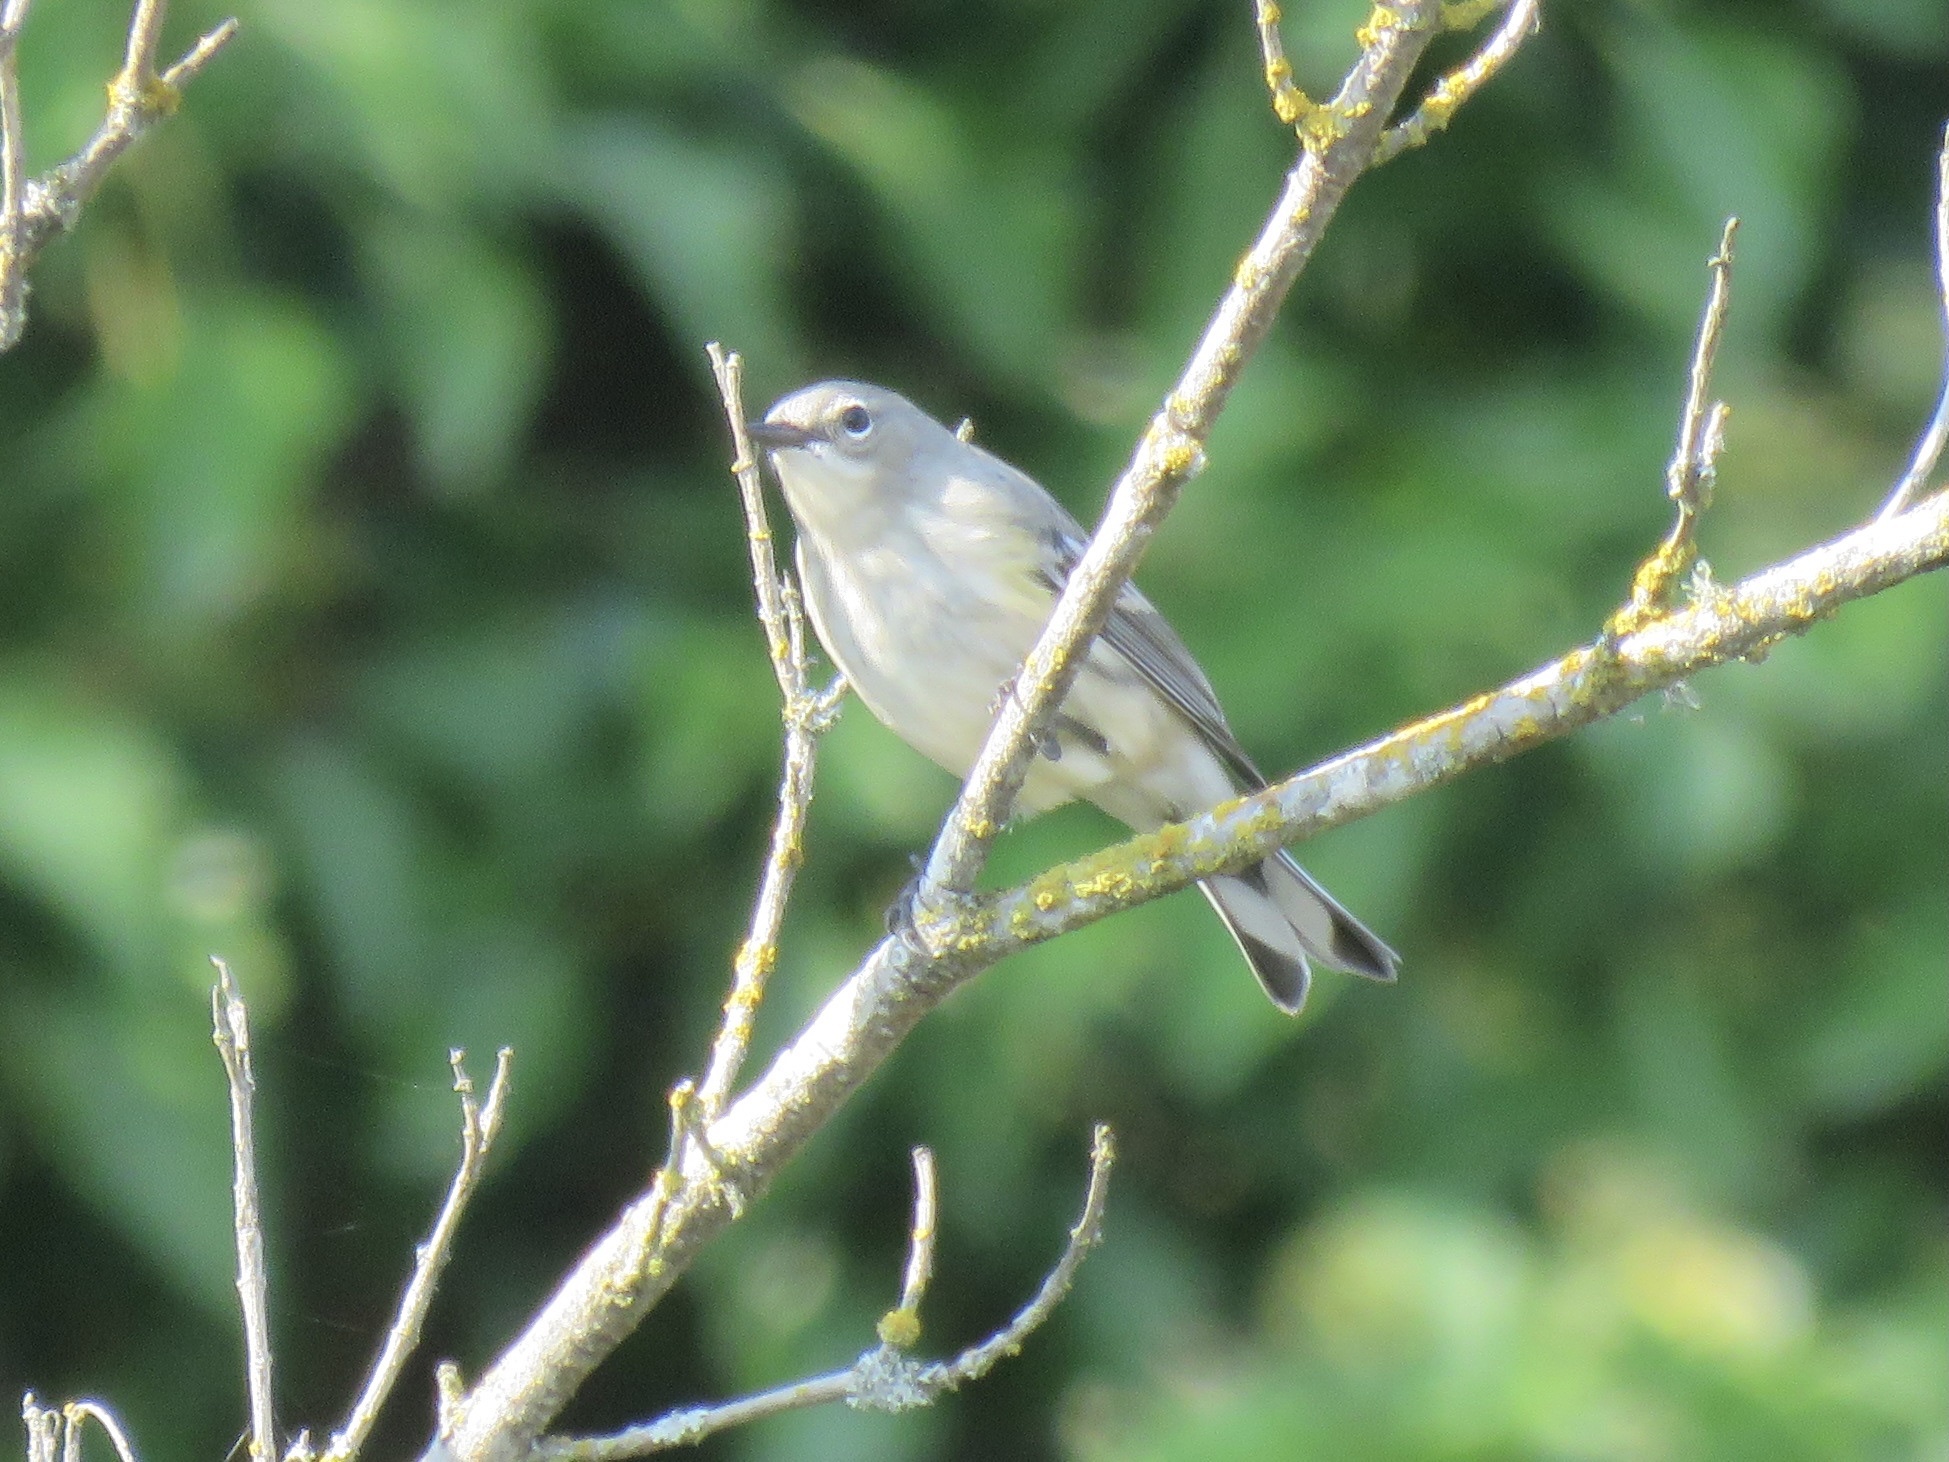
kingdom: Animalia
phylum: Chordata
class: Aves
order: Passeriformes
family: Parulidae
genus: Setophaga
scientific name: Setophaga coronata
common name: Myrtle warbler
